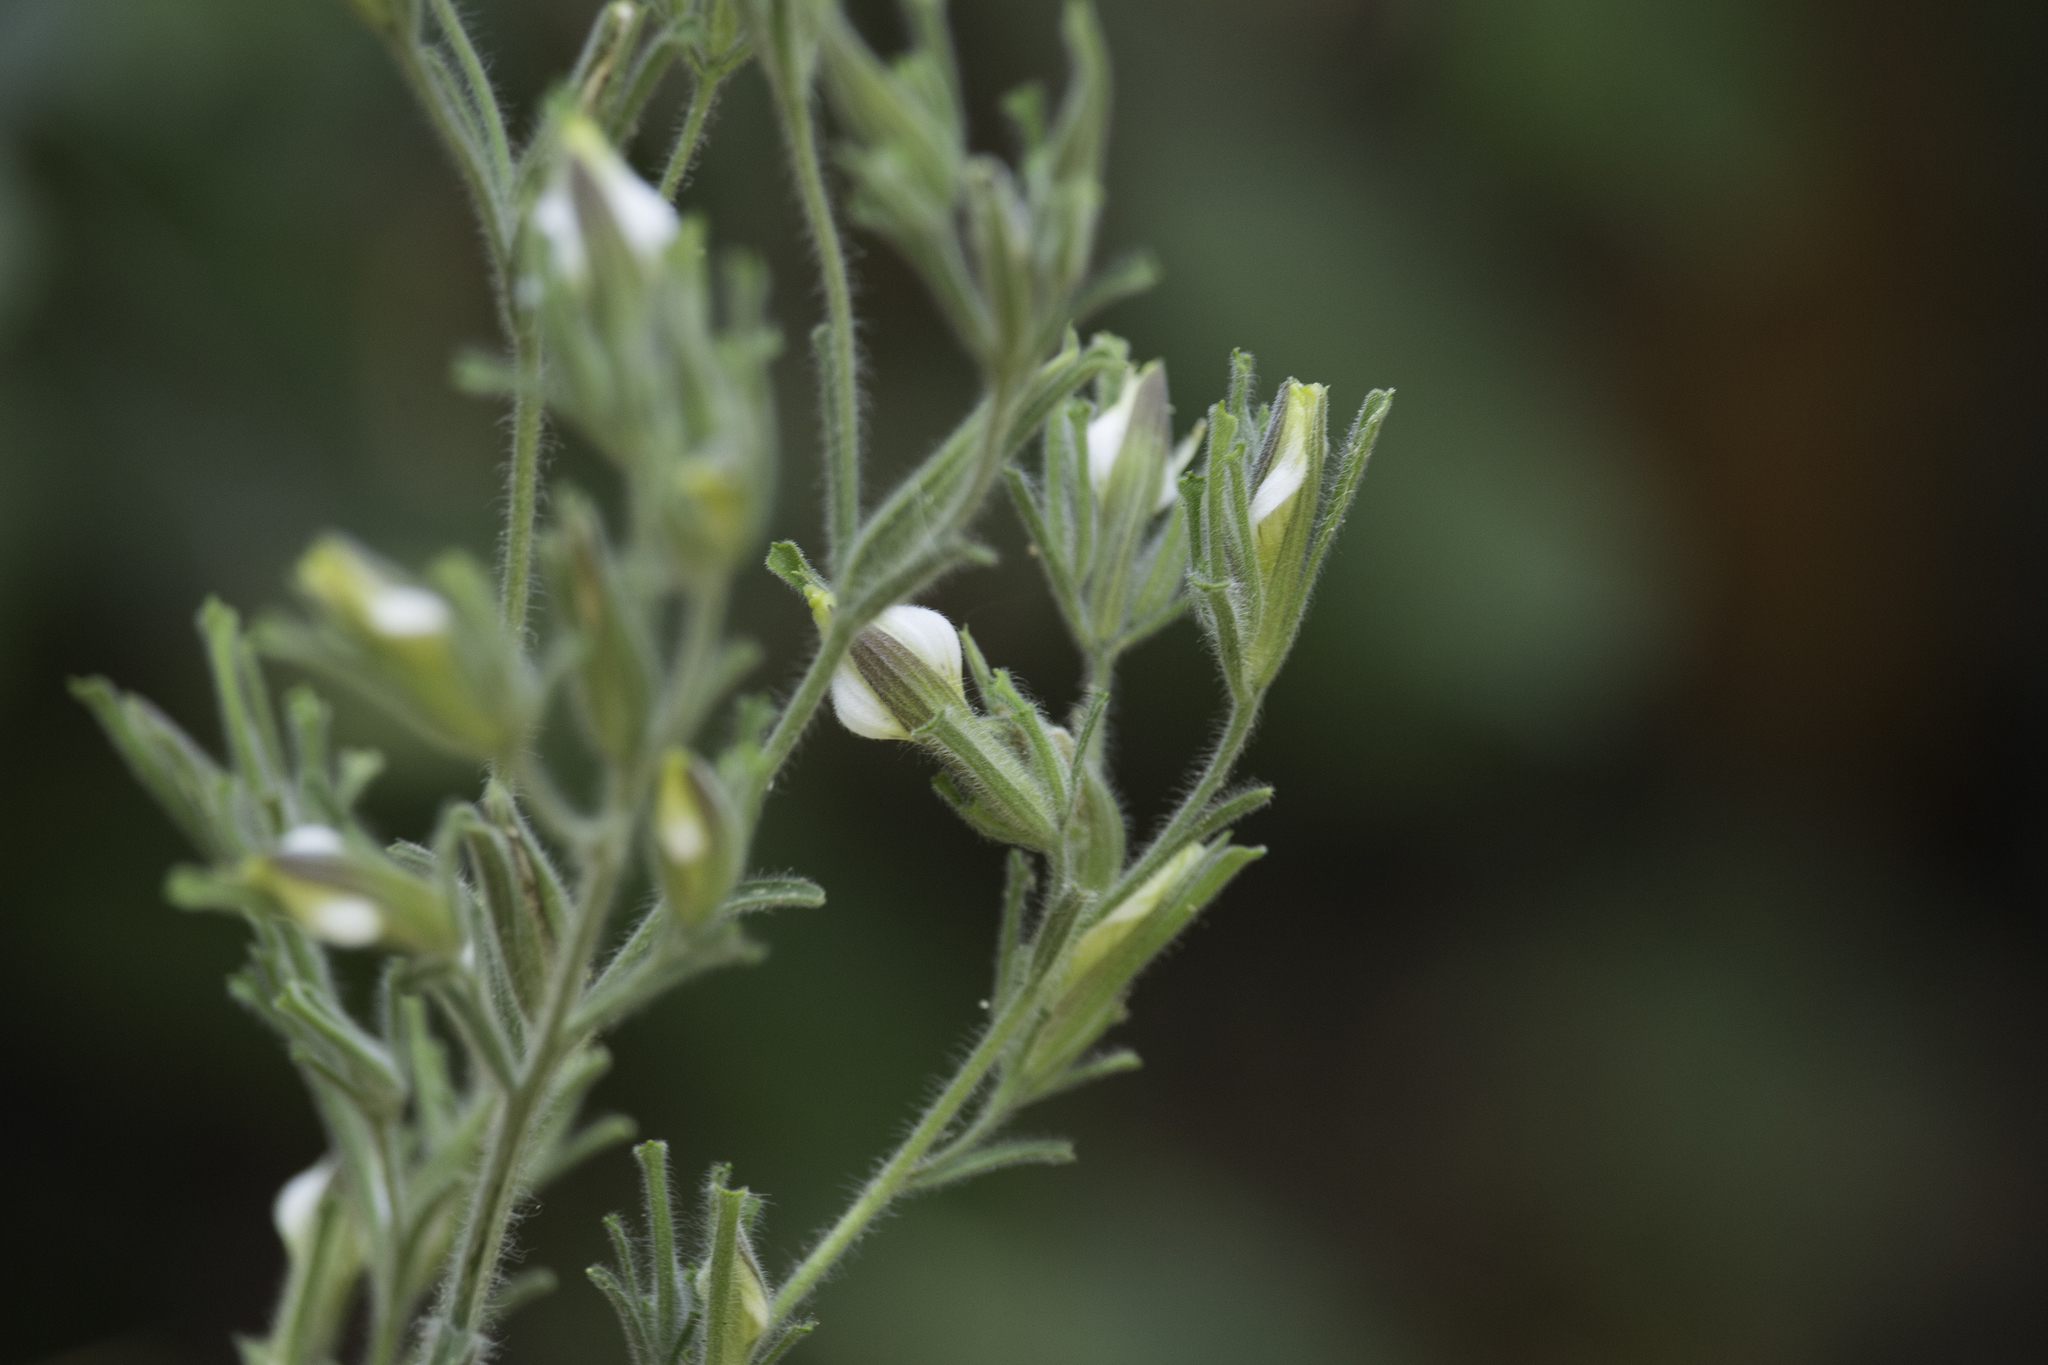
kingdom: Plantae
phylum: Tracheophyta
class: Magnoliopsida
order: Lamiales
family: Orobanchaceae
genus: Cordylanthus
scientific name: Cordylanthus pilosus
